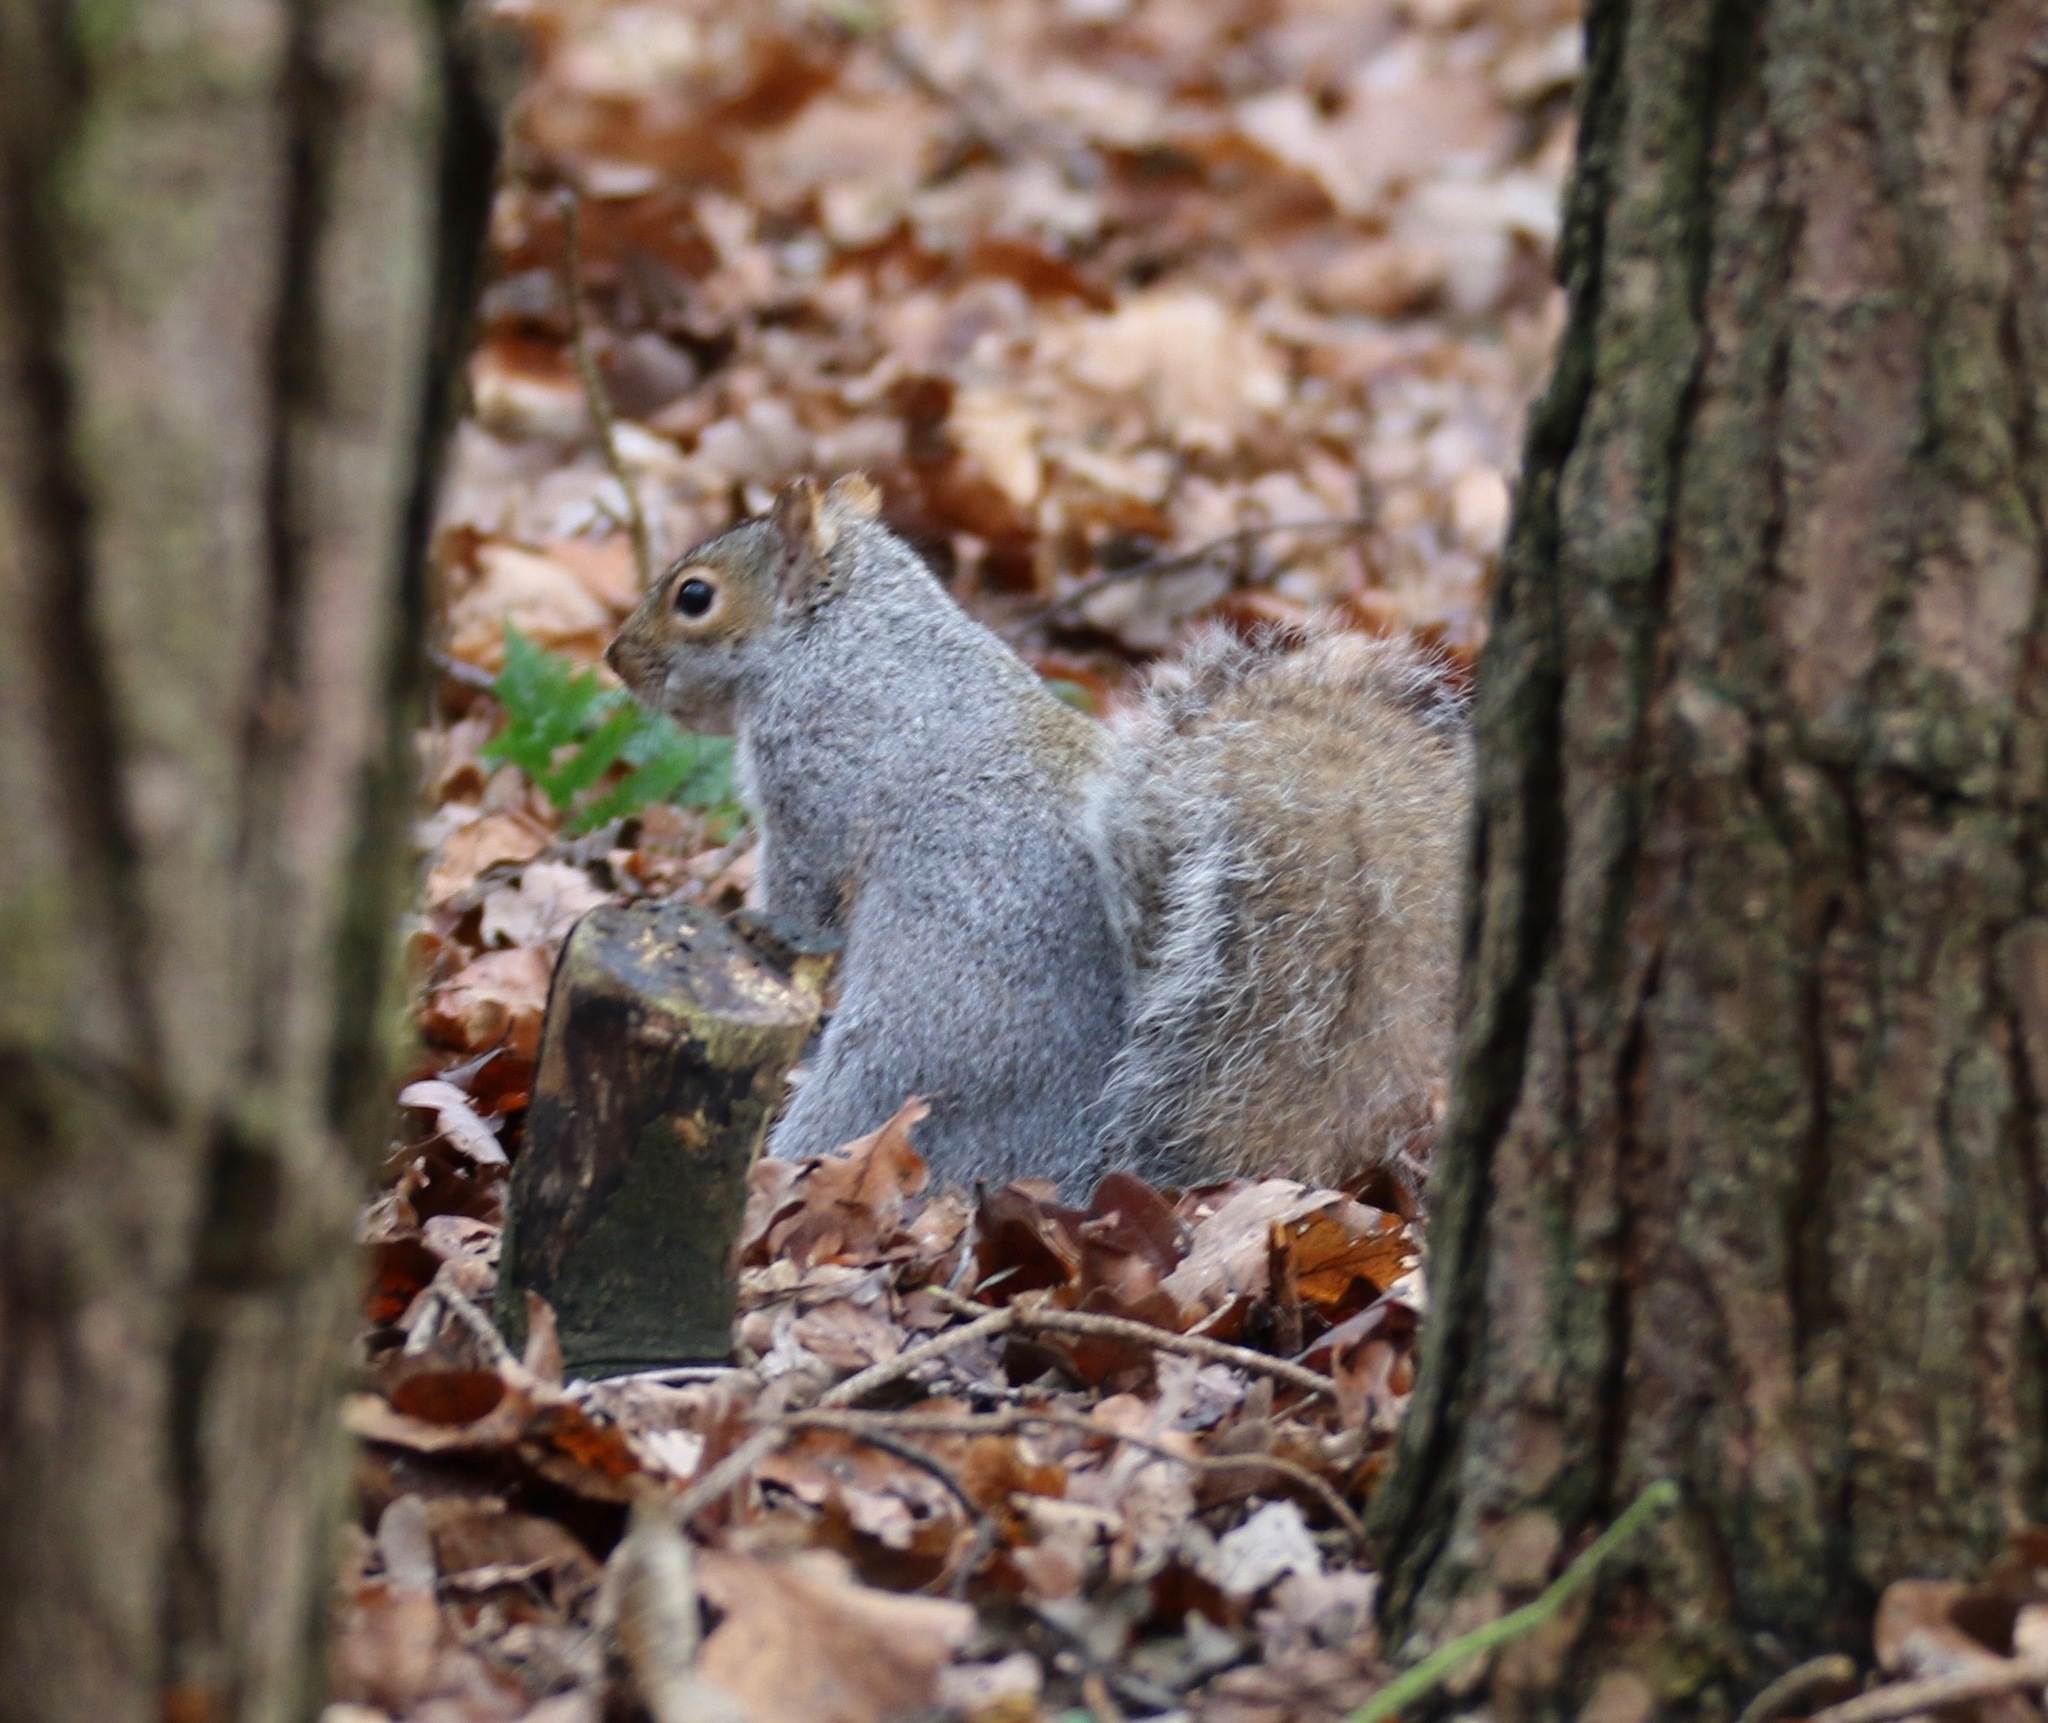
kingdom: Animalia
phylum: Chordata
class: Mammalia
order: Rodentia
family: Sciuridae
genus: Sciurus
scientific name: Sciurus carolinensis
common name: Eastern gray squirrel
